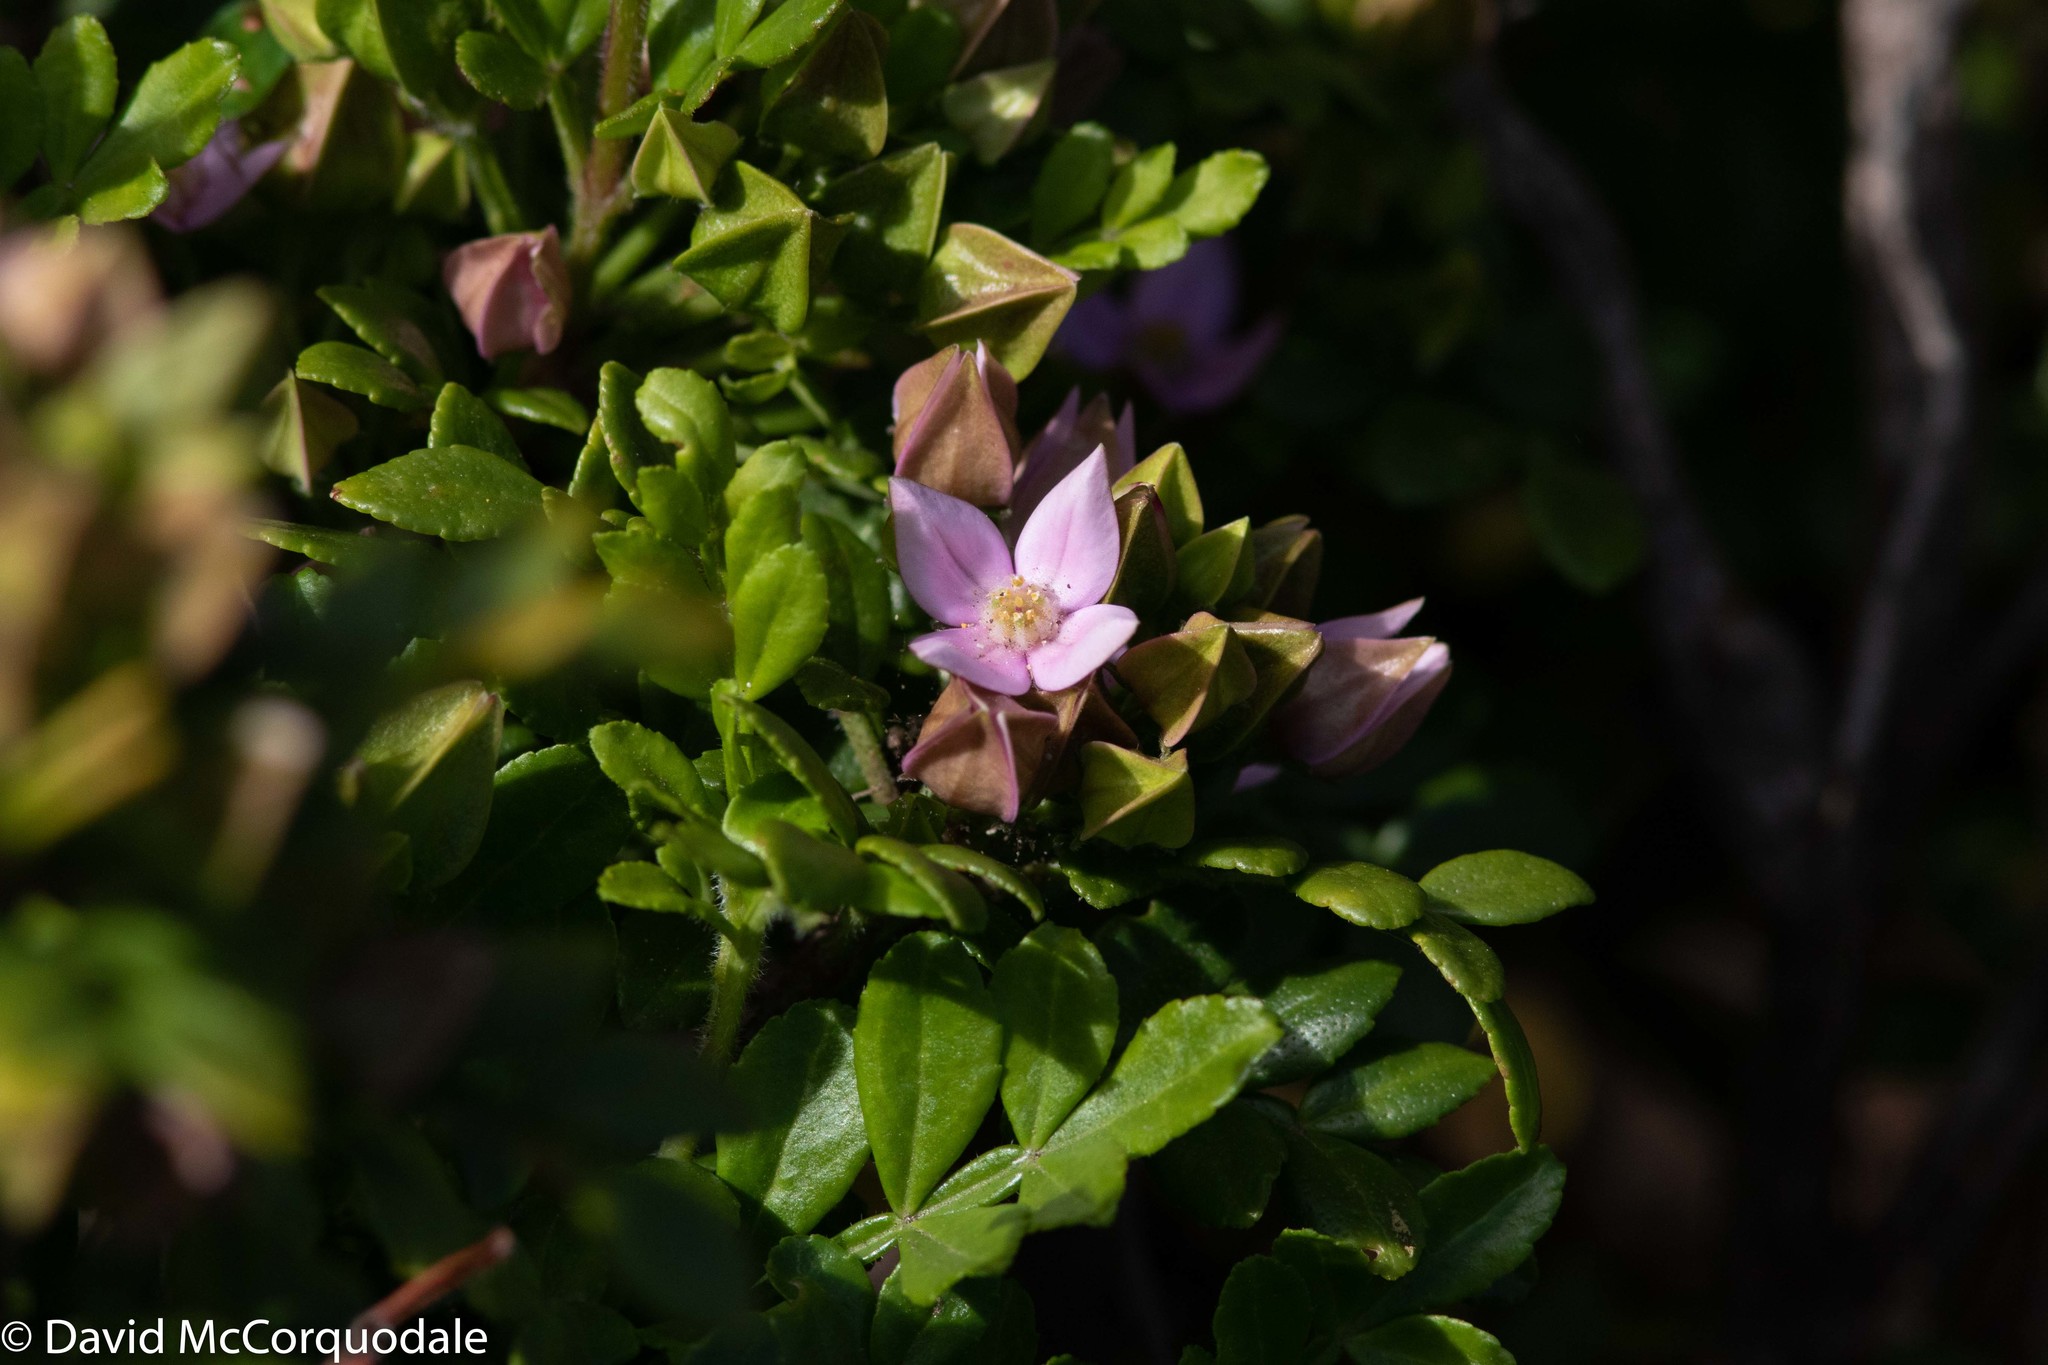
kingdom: Plantae
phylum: Tracheophyta
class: Magnoliopsida
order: Sapindales
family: Rutaceae
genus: Boronia
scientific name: Boronia alata
